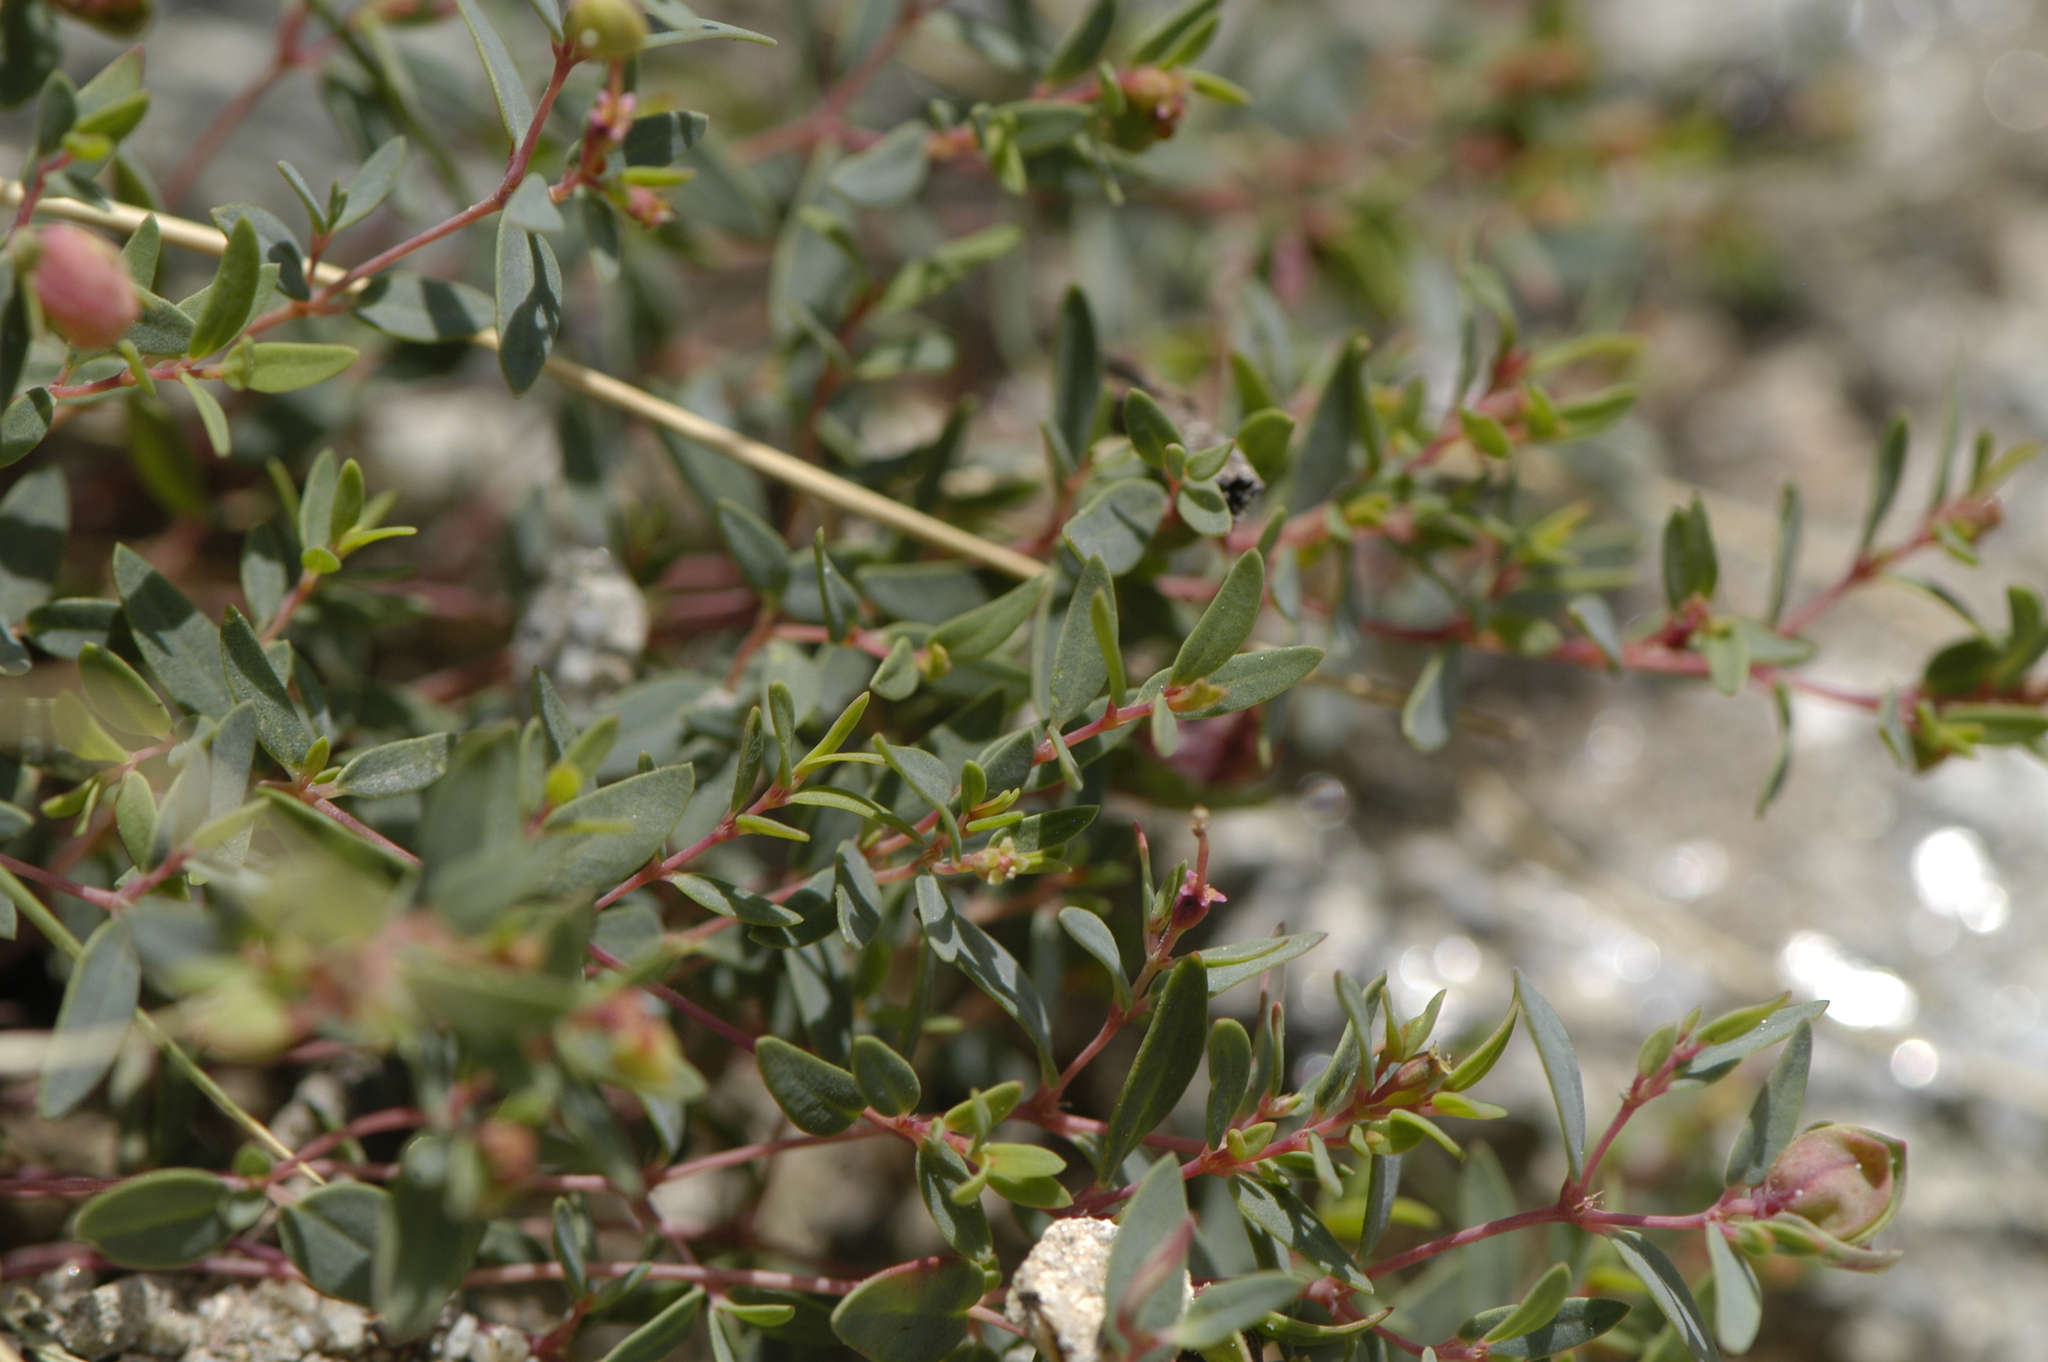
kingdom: Plantae
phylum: Tracheophyta
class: Magnoliopsida
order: Malpighiales
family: Euphorbiaceae
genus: Euphorbia
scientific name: Euphorbia chaetocalyx
